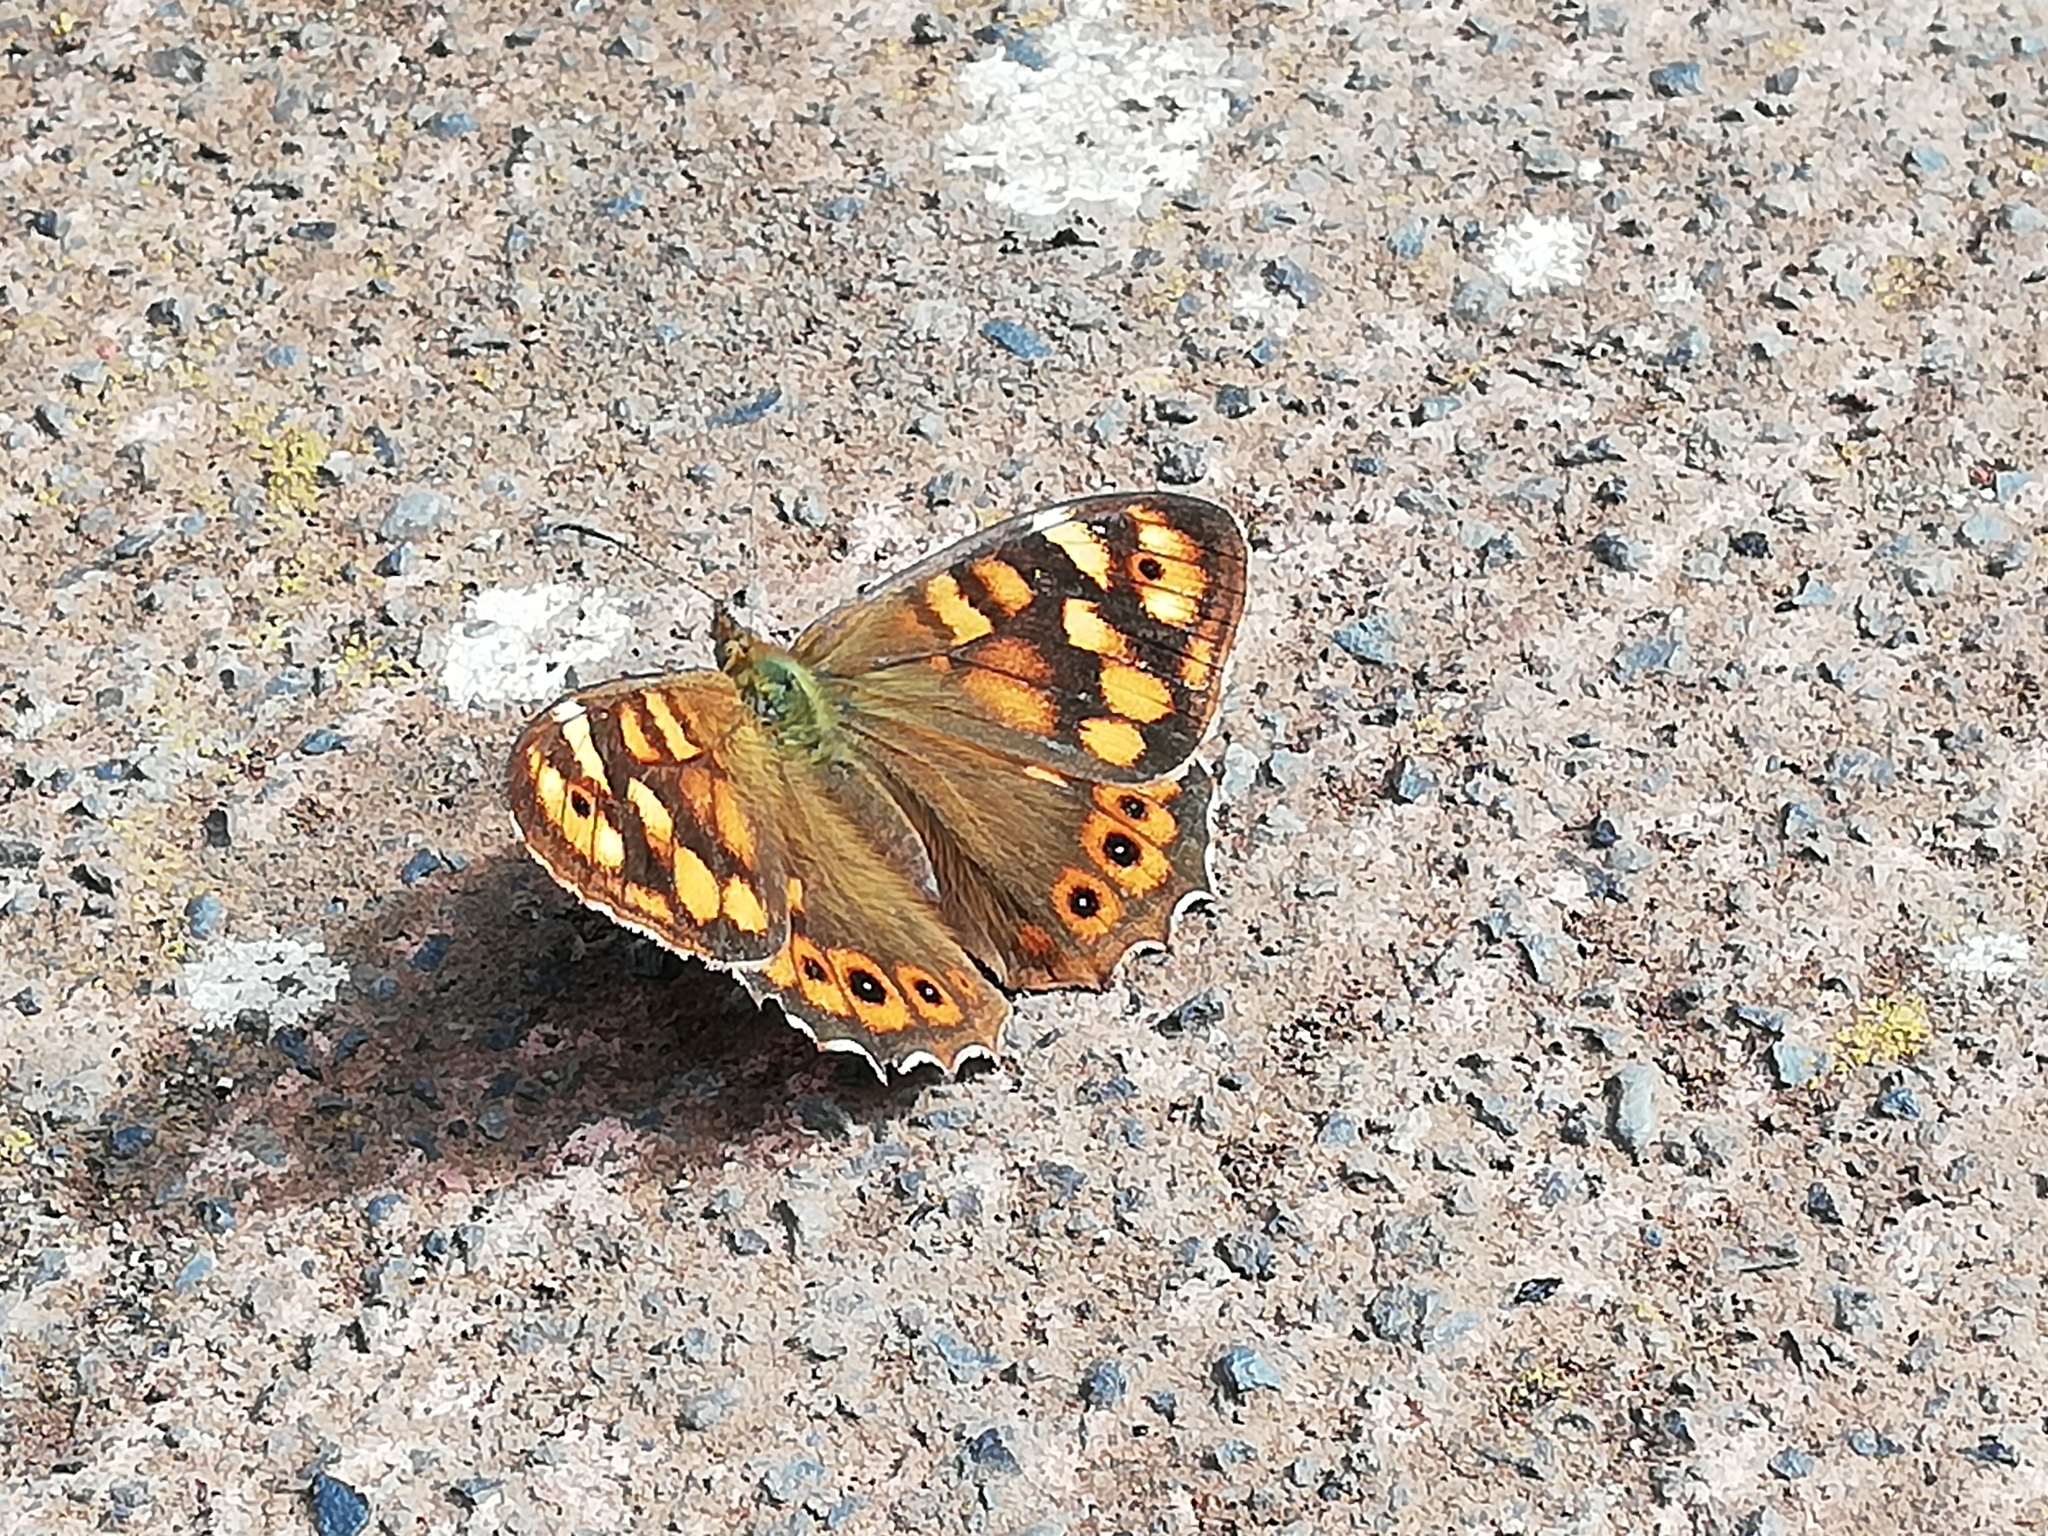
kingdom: Animalia
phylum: Arthropoda
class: Insecta
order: Lepidoptera
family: Nymphalidae
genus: Pararge
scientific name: Pararge aegeria
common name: Speckled wood
